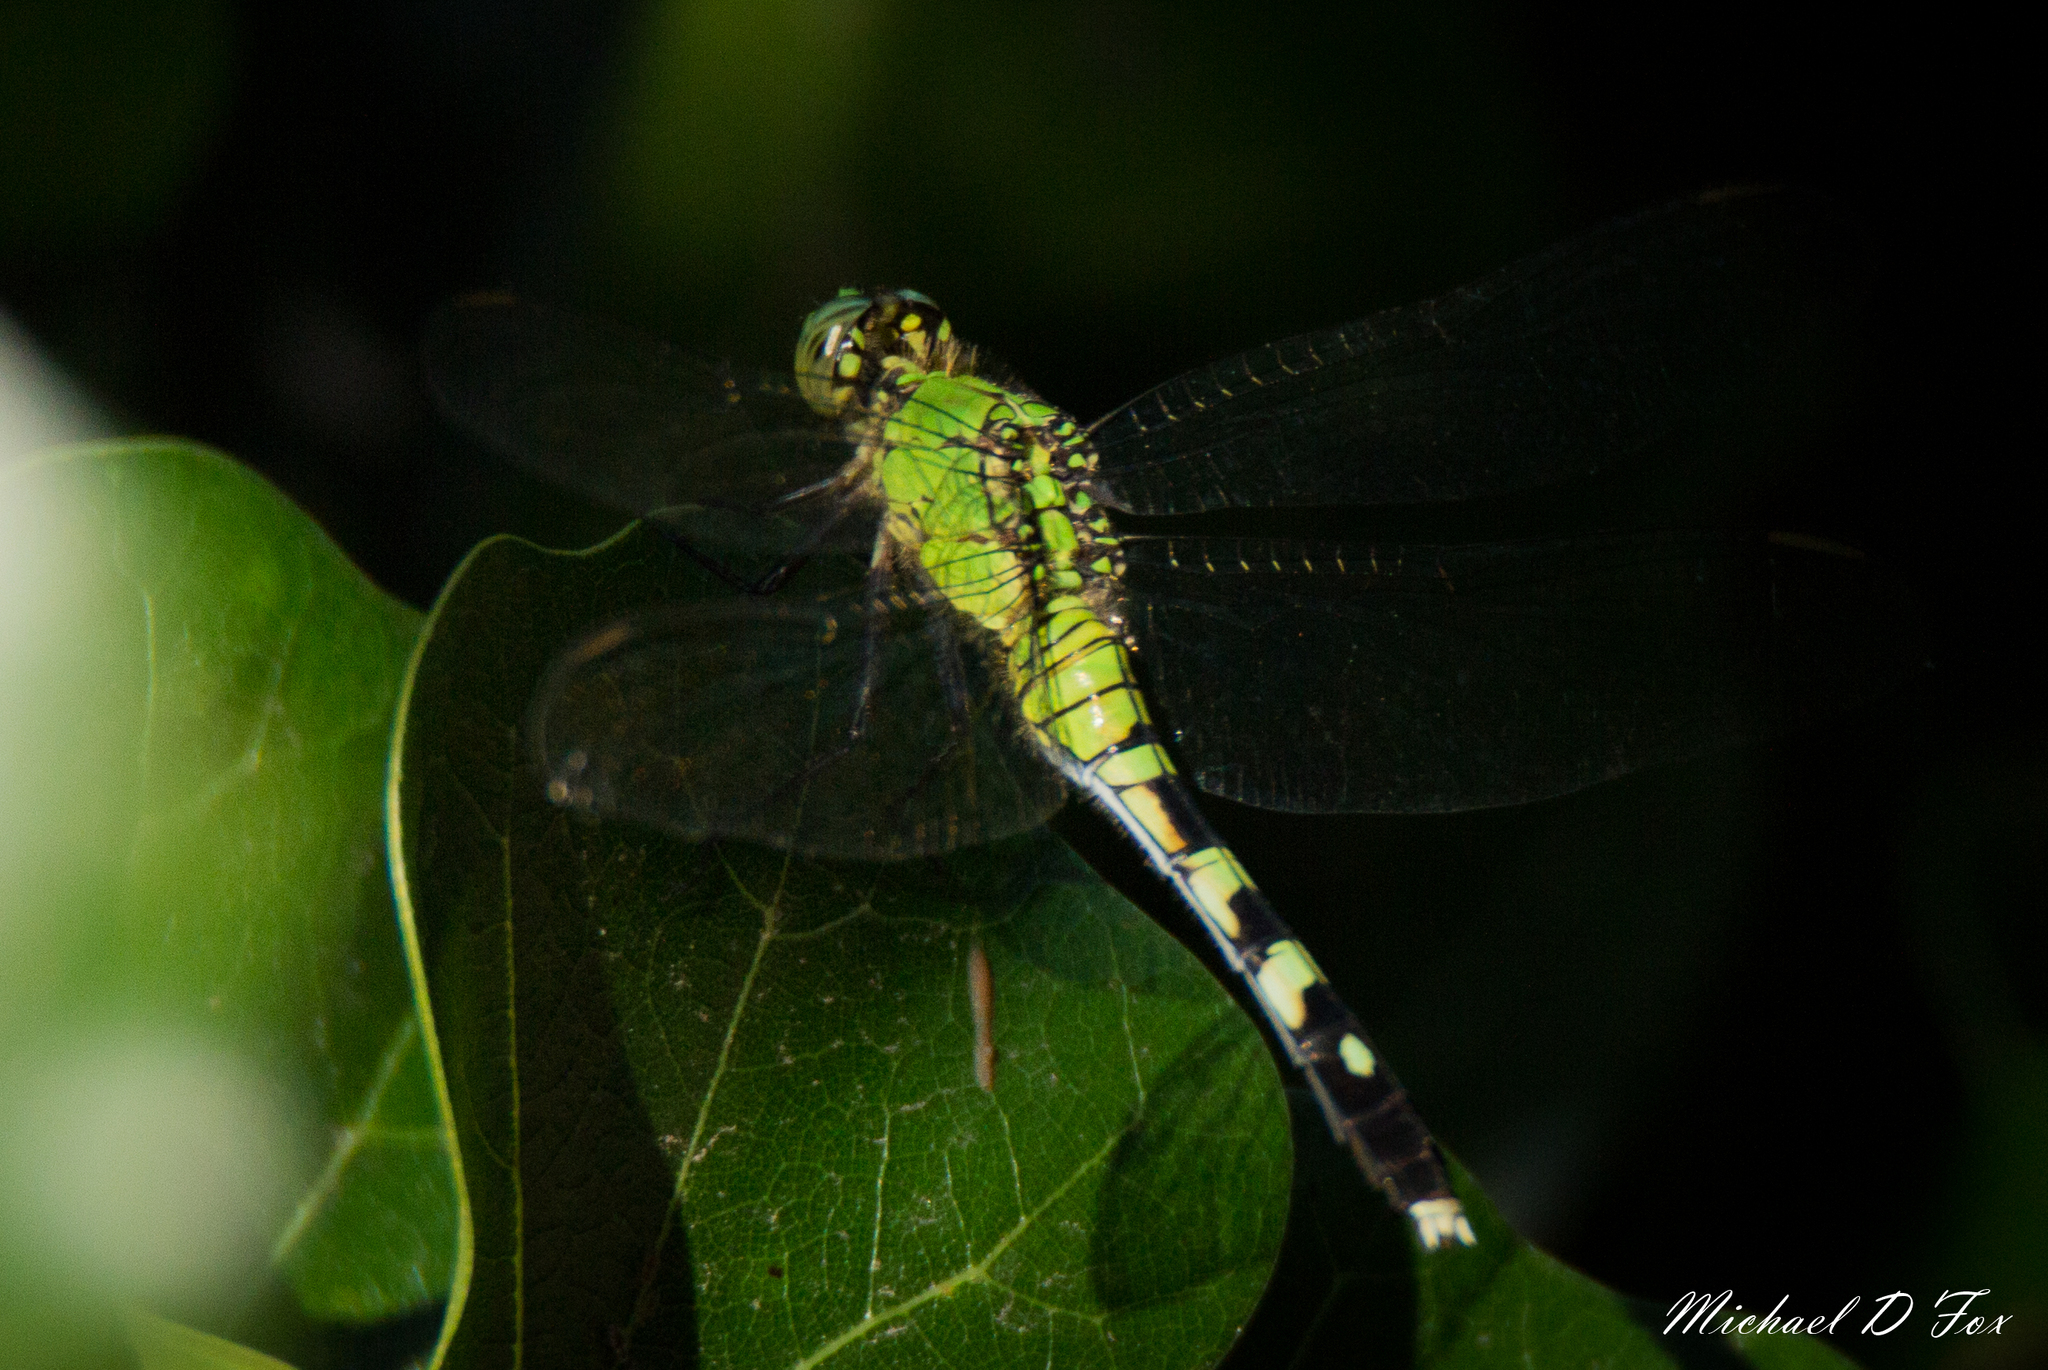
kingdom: Animalia
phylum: Arthropoda
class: Insecta
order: Odonata
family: Libellulidae
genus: Erythemis
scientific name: Erythemis simplicicollis
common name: Eastern pondhawk
